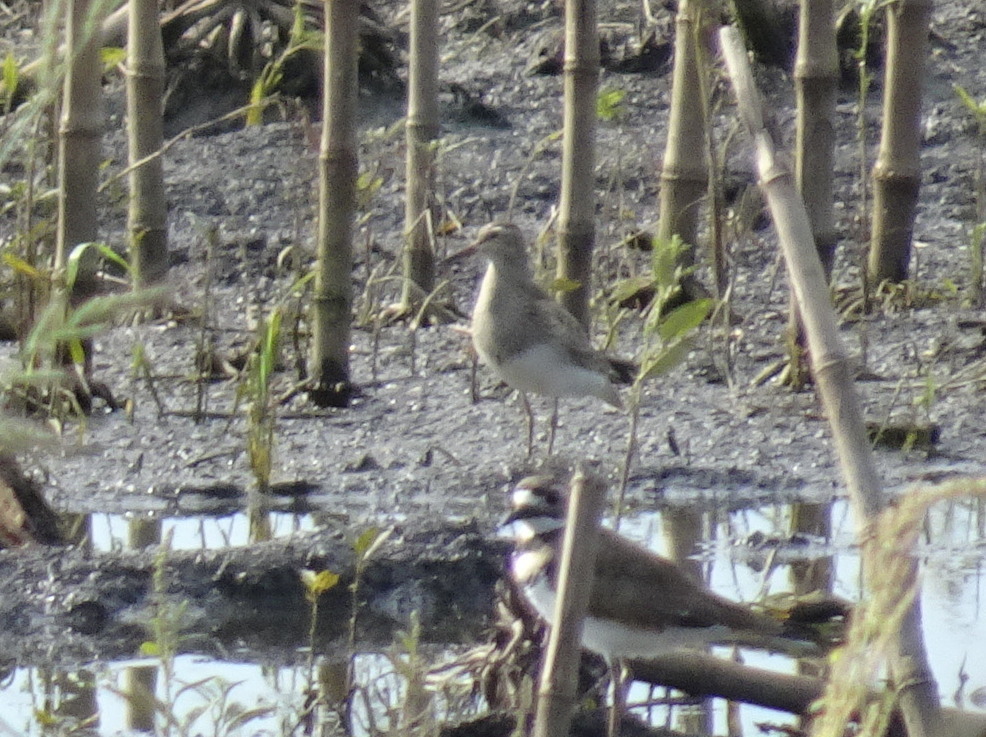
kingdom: Animalia
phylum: Chordata
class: Aves
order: Charadriiformes
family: Scolopacidae
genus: Calidris
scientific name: Calidris melanotos
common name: Pectoral sandpiper
